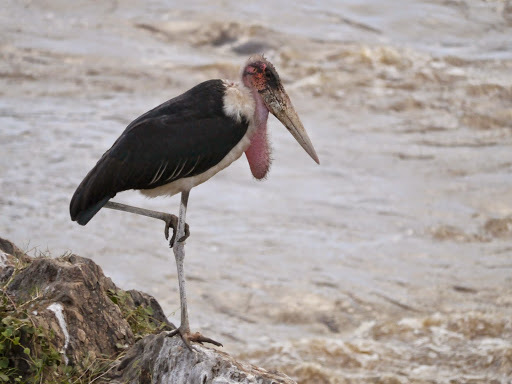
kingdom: Animalia
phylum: Chordata
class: Aves
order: Ciconiiformes
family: Ciconiidae
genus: Leptoptilos
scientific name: Leptoptilos crumenifer
